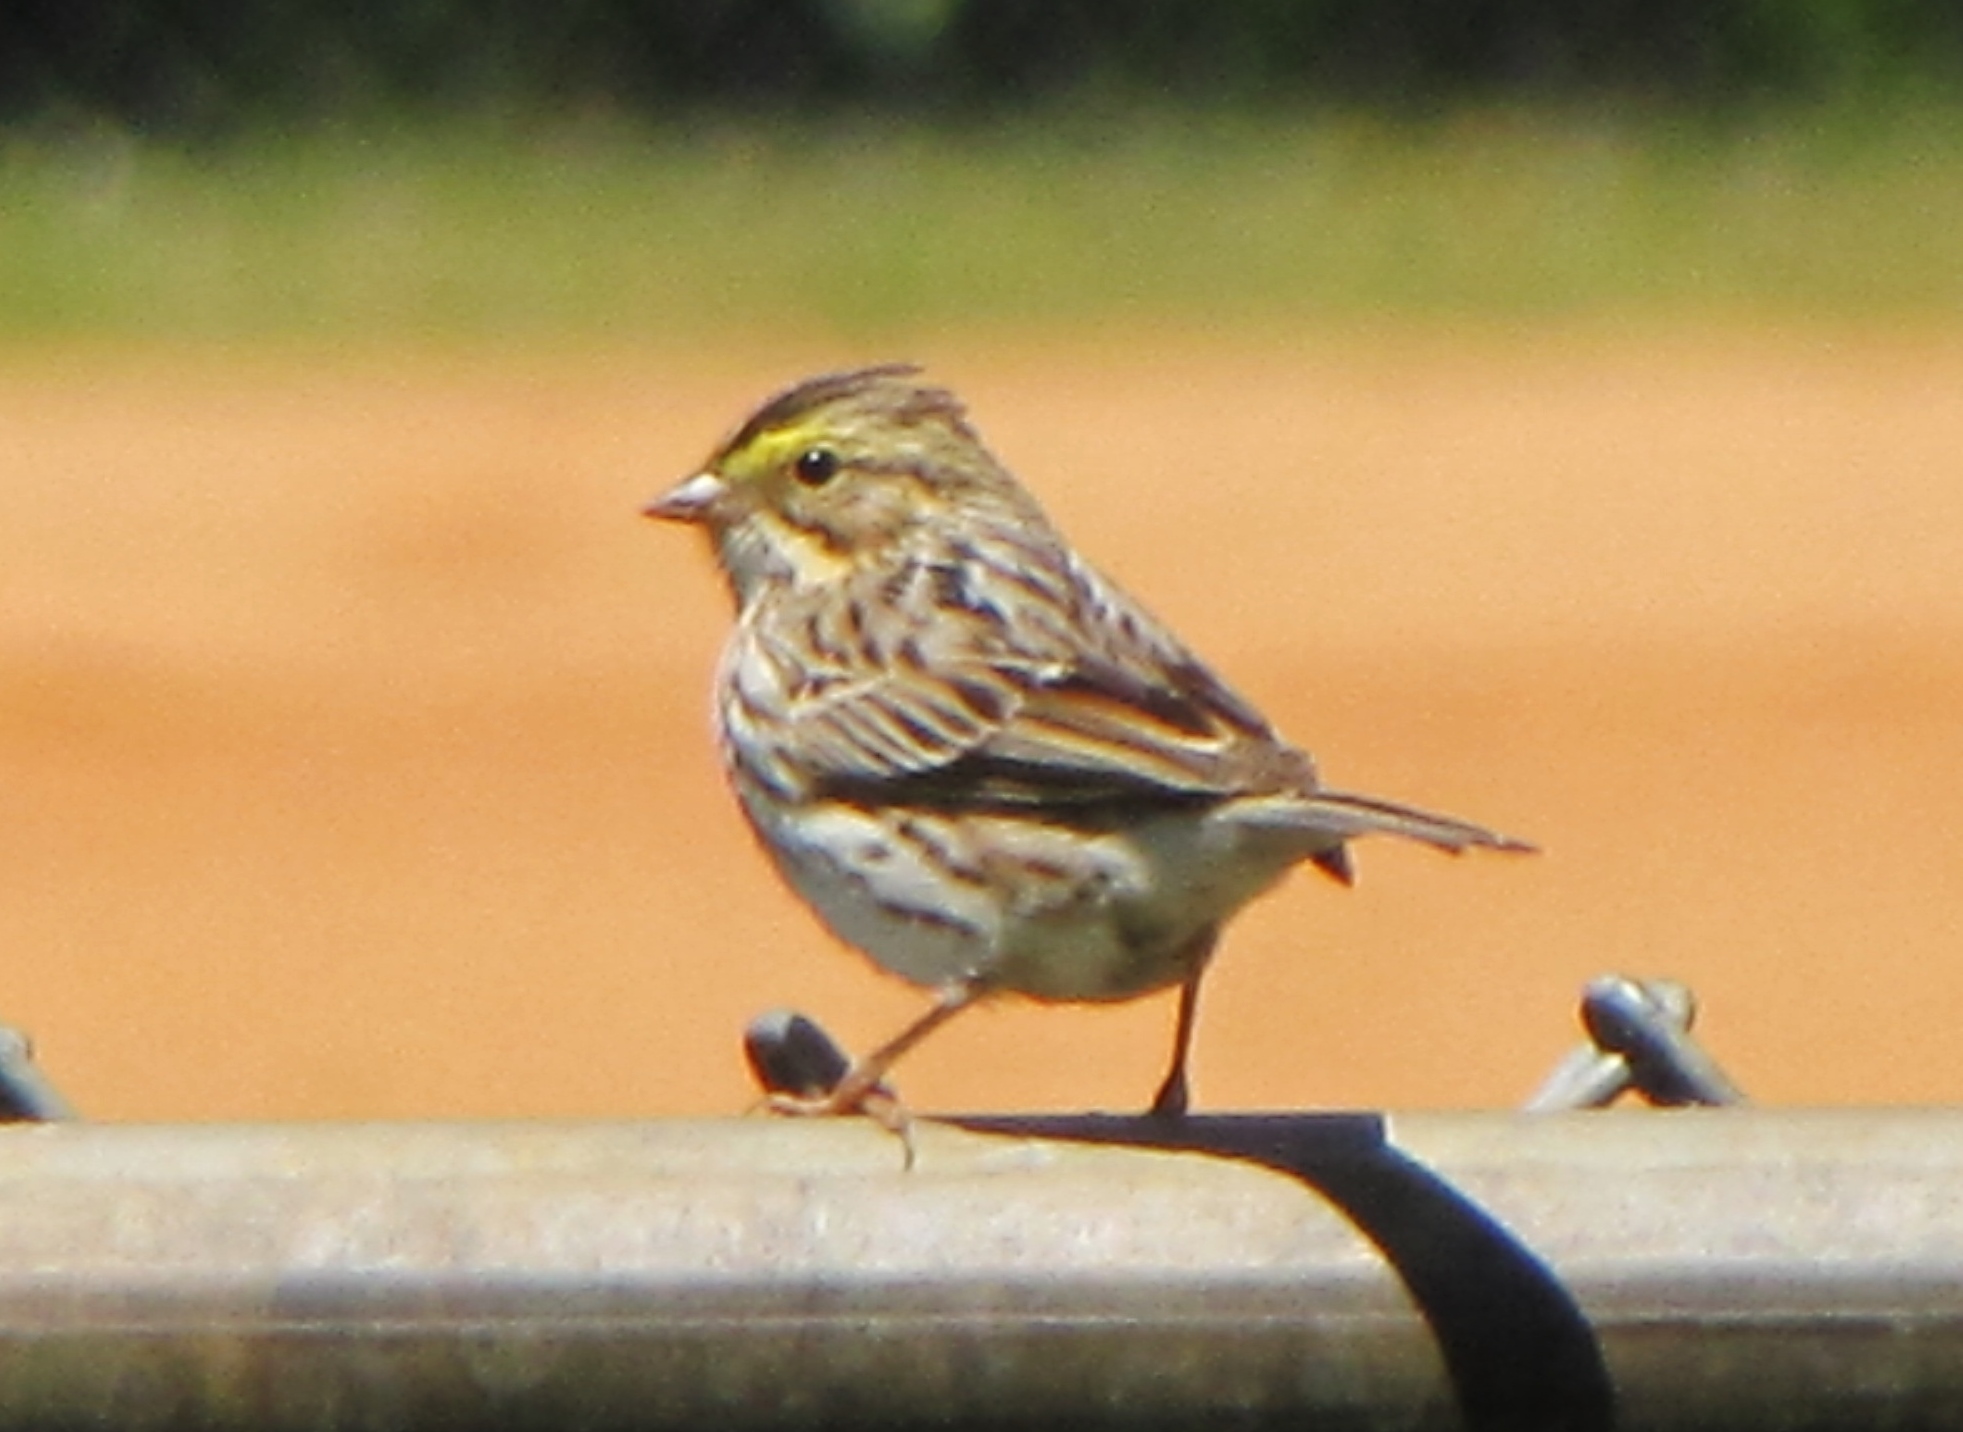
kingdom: Animalia
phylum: Chordata
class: Aves
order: Passeriformes
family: Passerellidae
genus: Passerculus
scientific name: Passerculus sandwichensis
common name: Savannah sparrow
